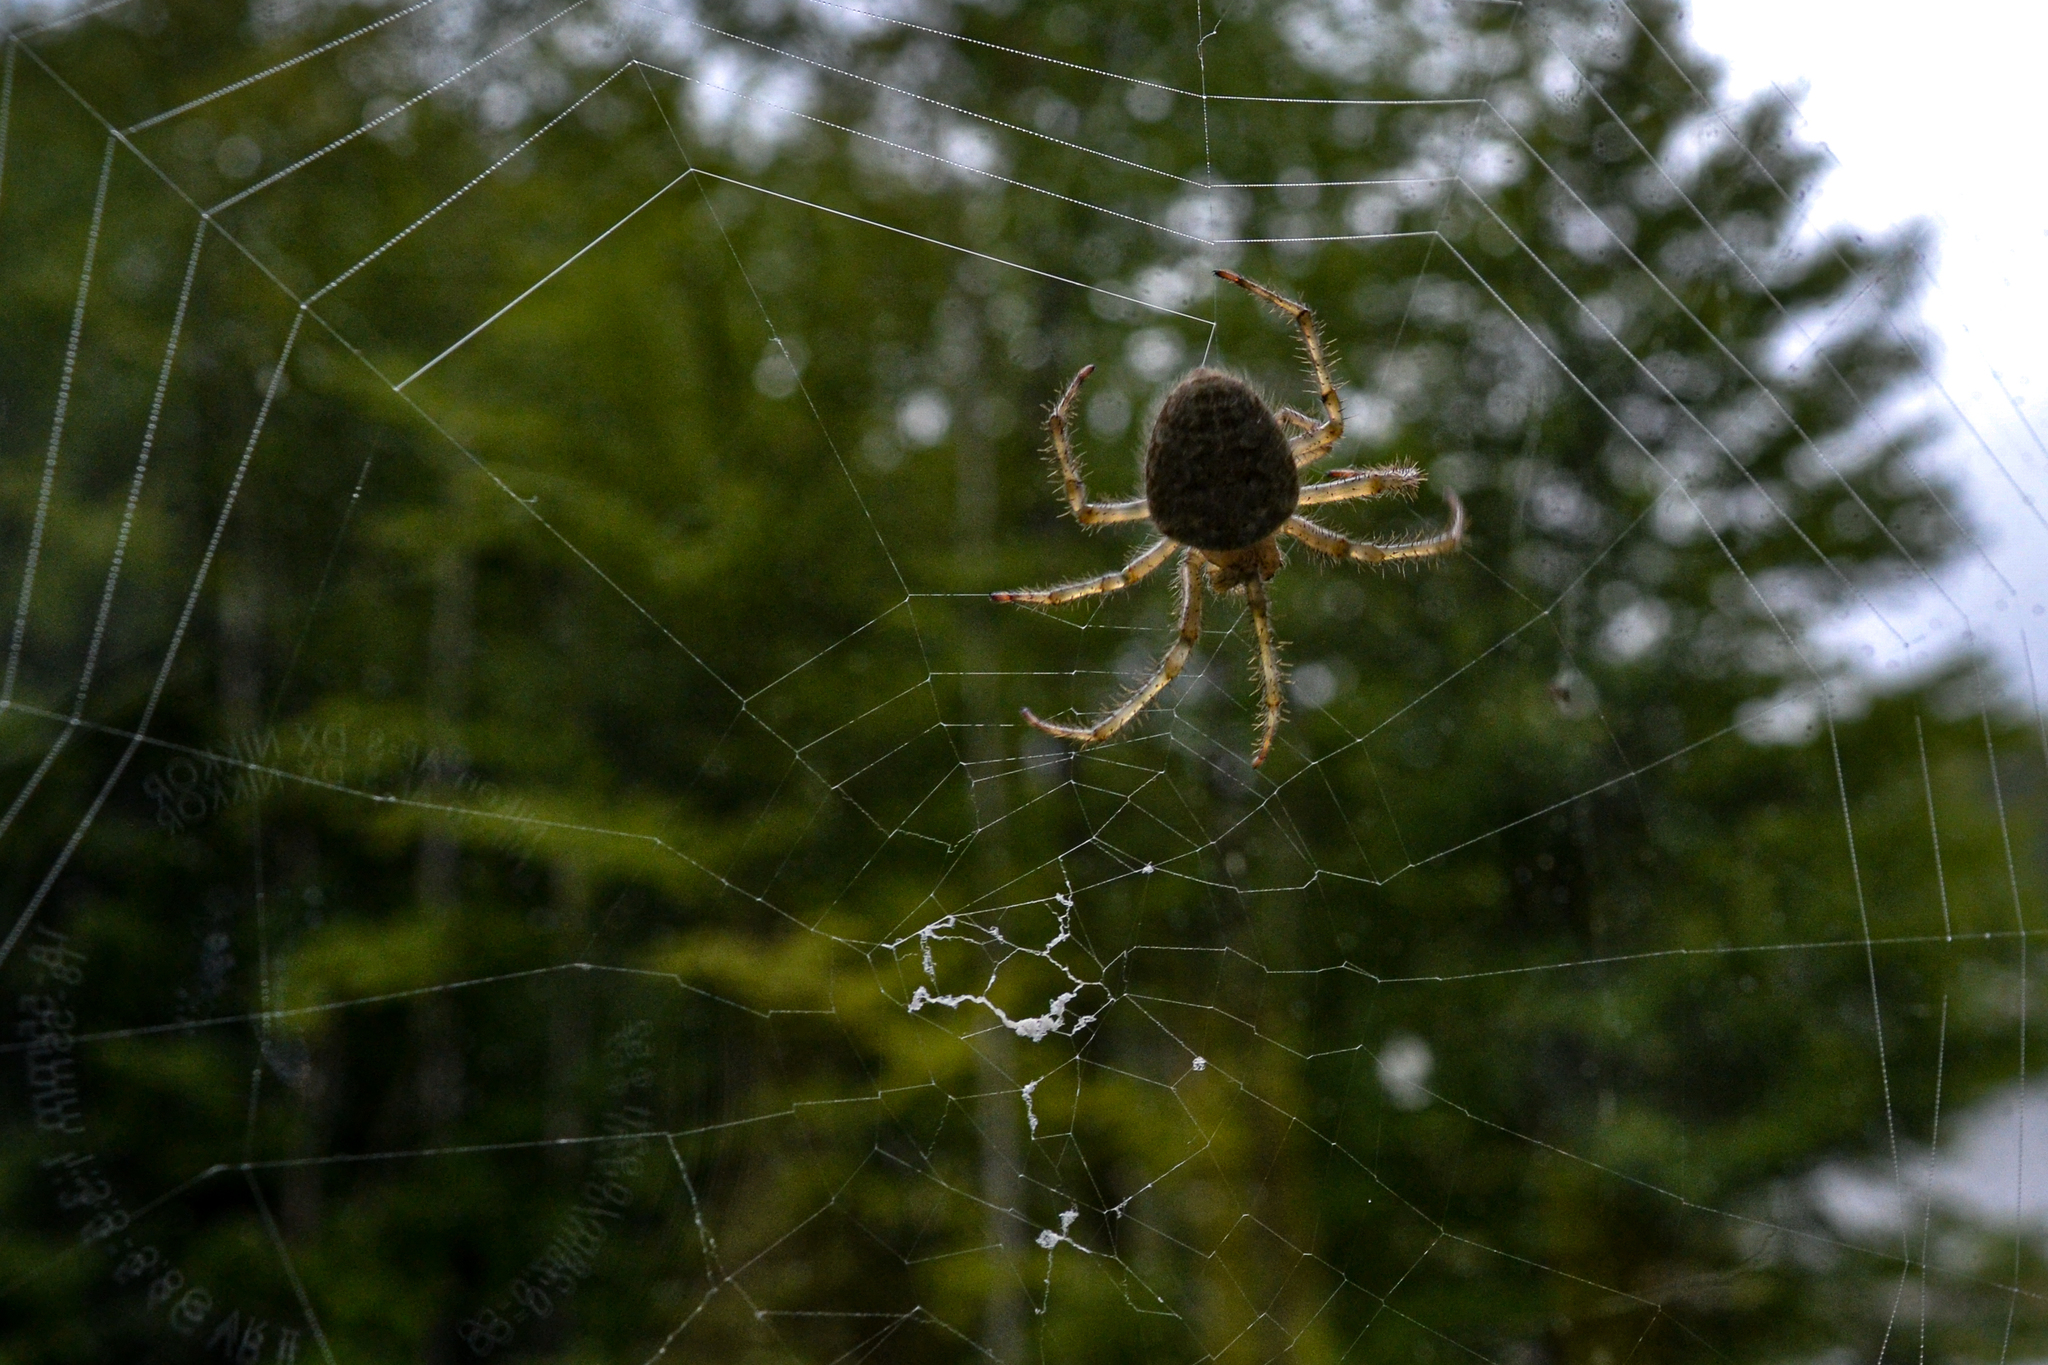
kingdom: Animalia
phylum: Arthropoda
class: Arachnida
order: Araneae
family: Araneidae
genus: Araneus
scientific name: Araneus cavaticus
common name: Barn orbweaver
